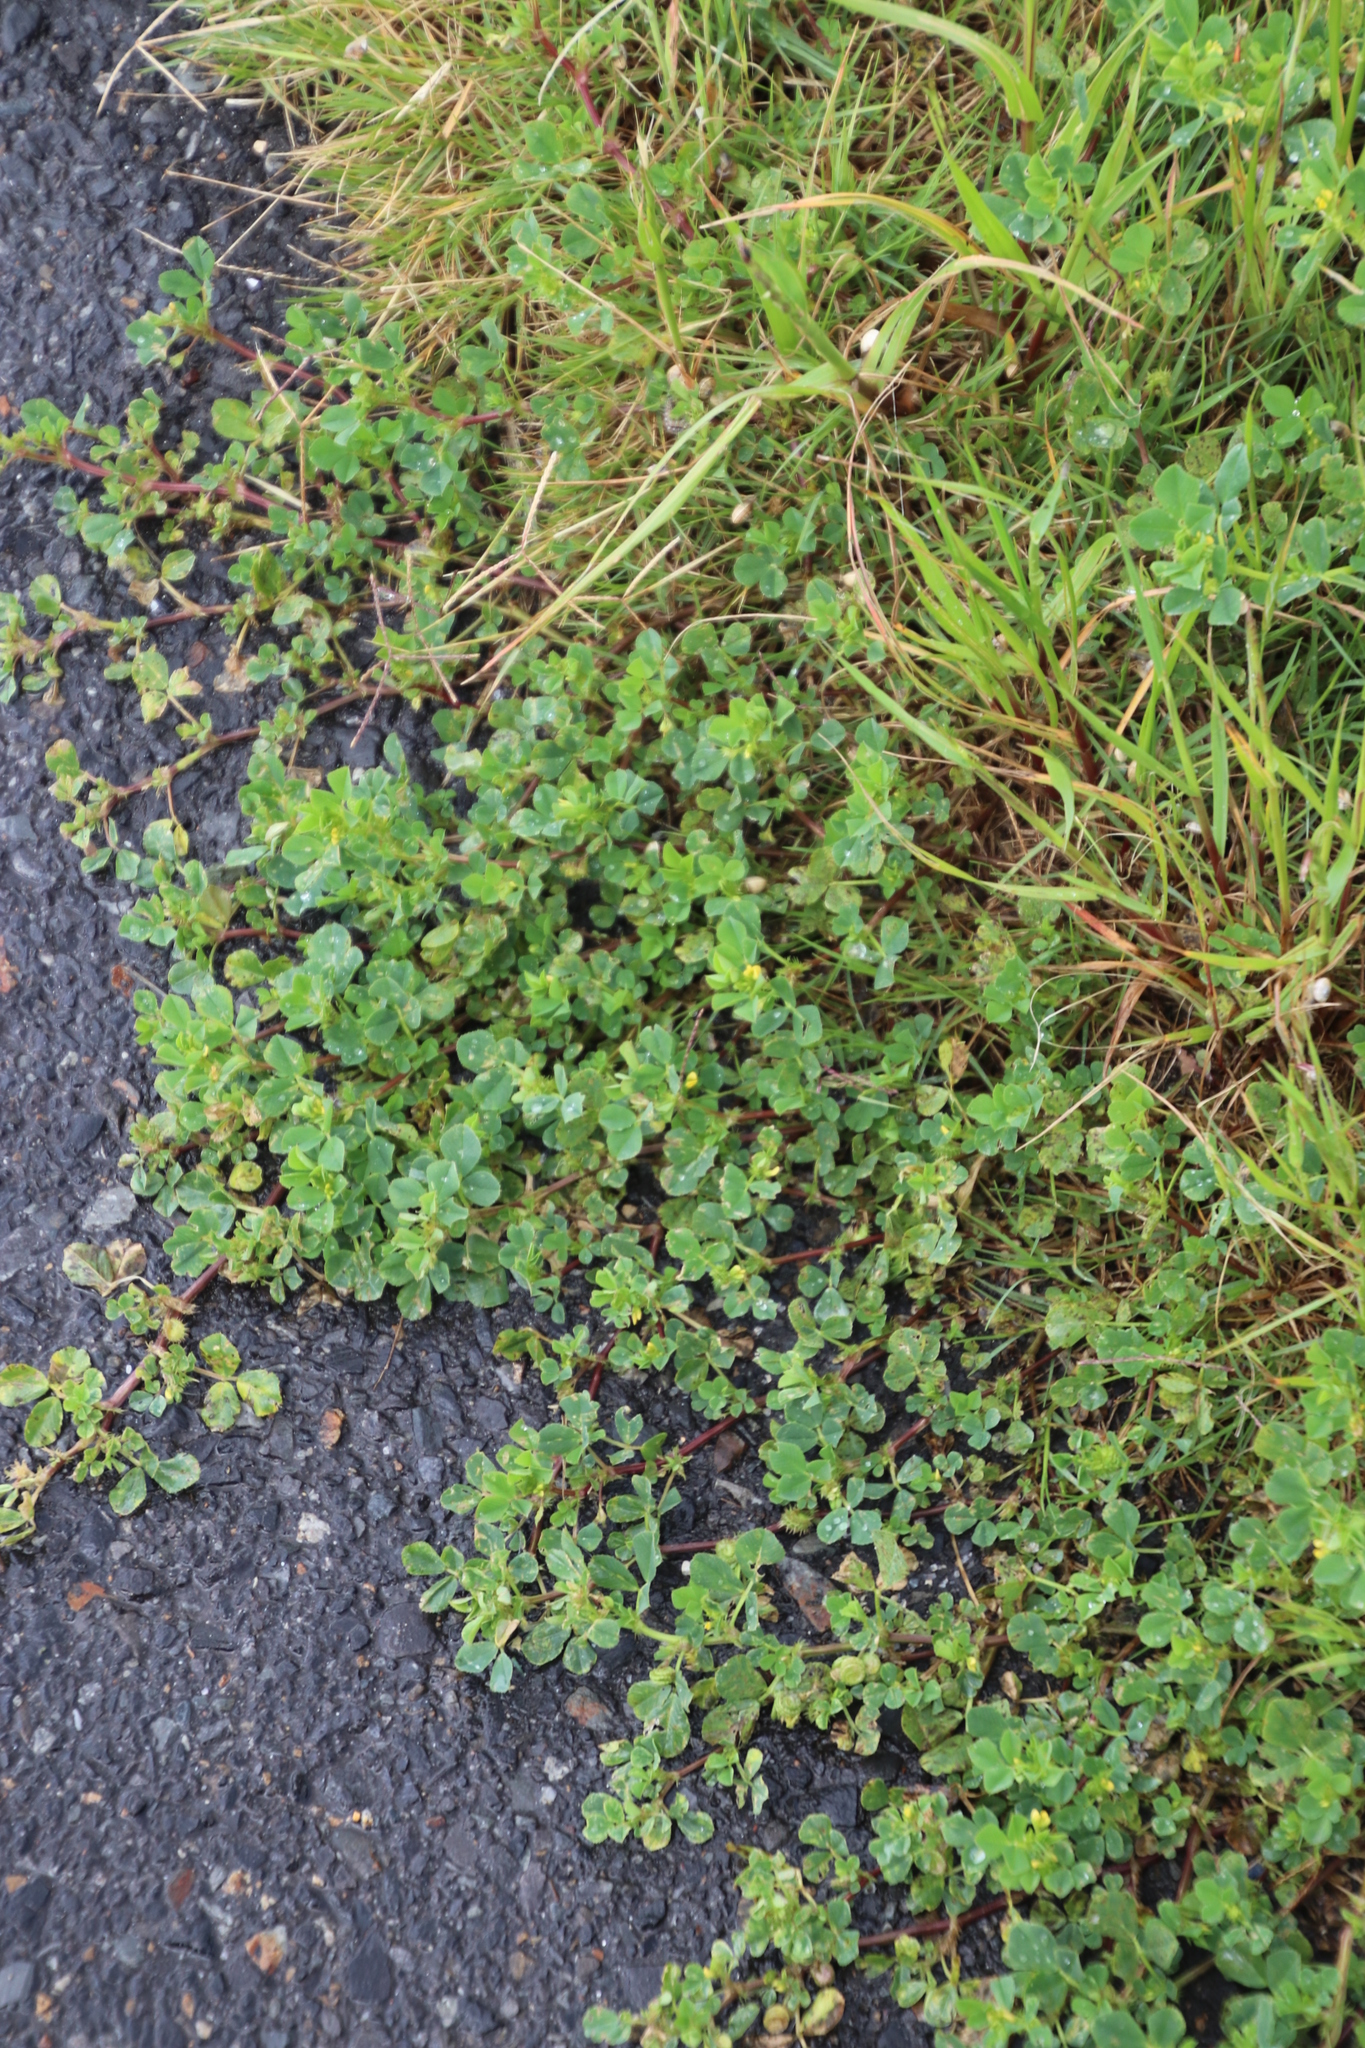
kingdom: Plantae
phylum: Tracheophyta
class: Magnoliopsida
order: Fabales
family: Fabaceae
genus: Medicago
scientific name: Medicago polymorpha
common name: Burclover
